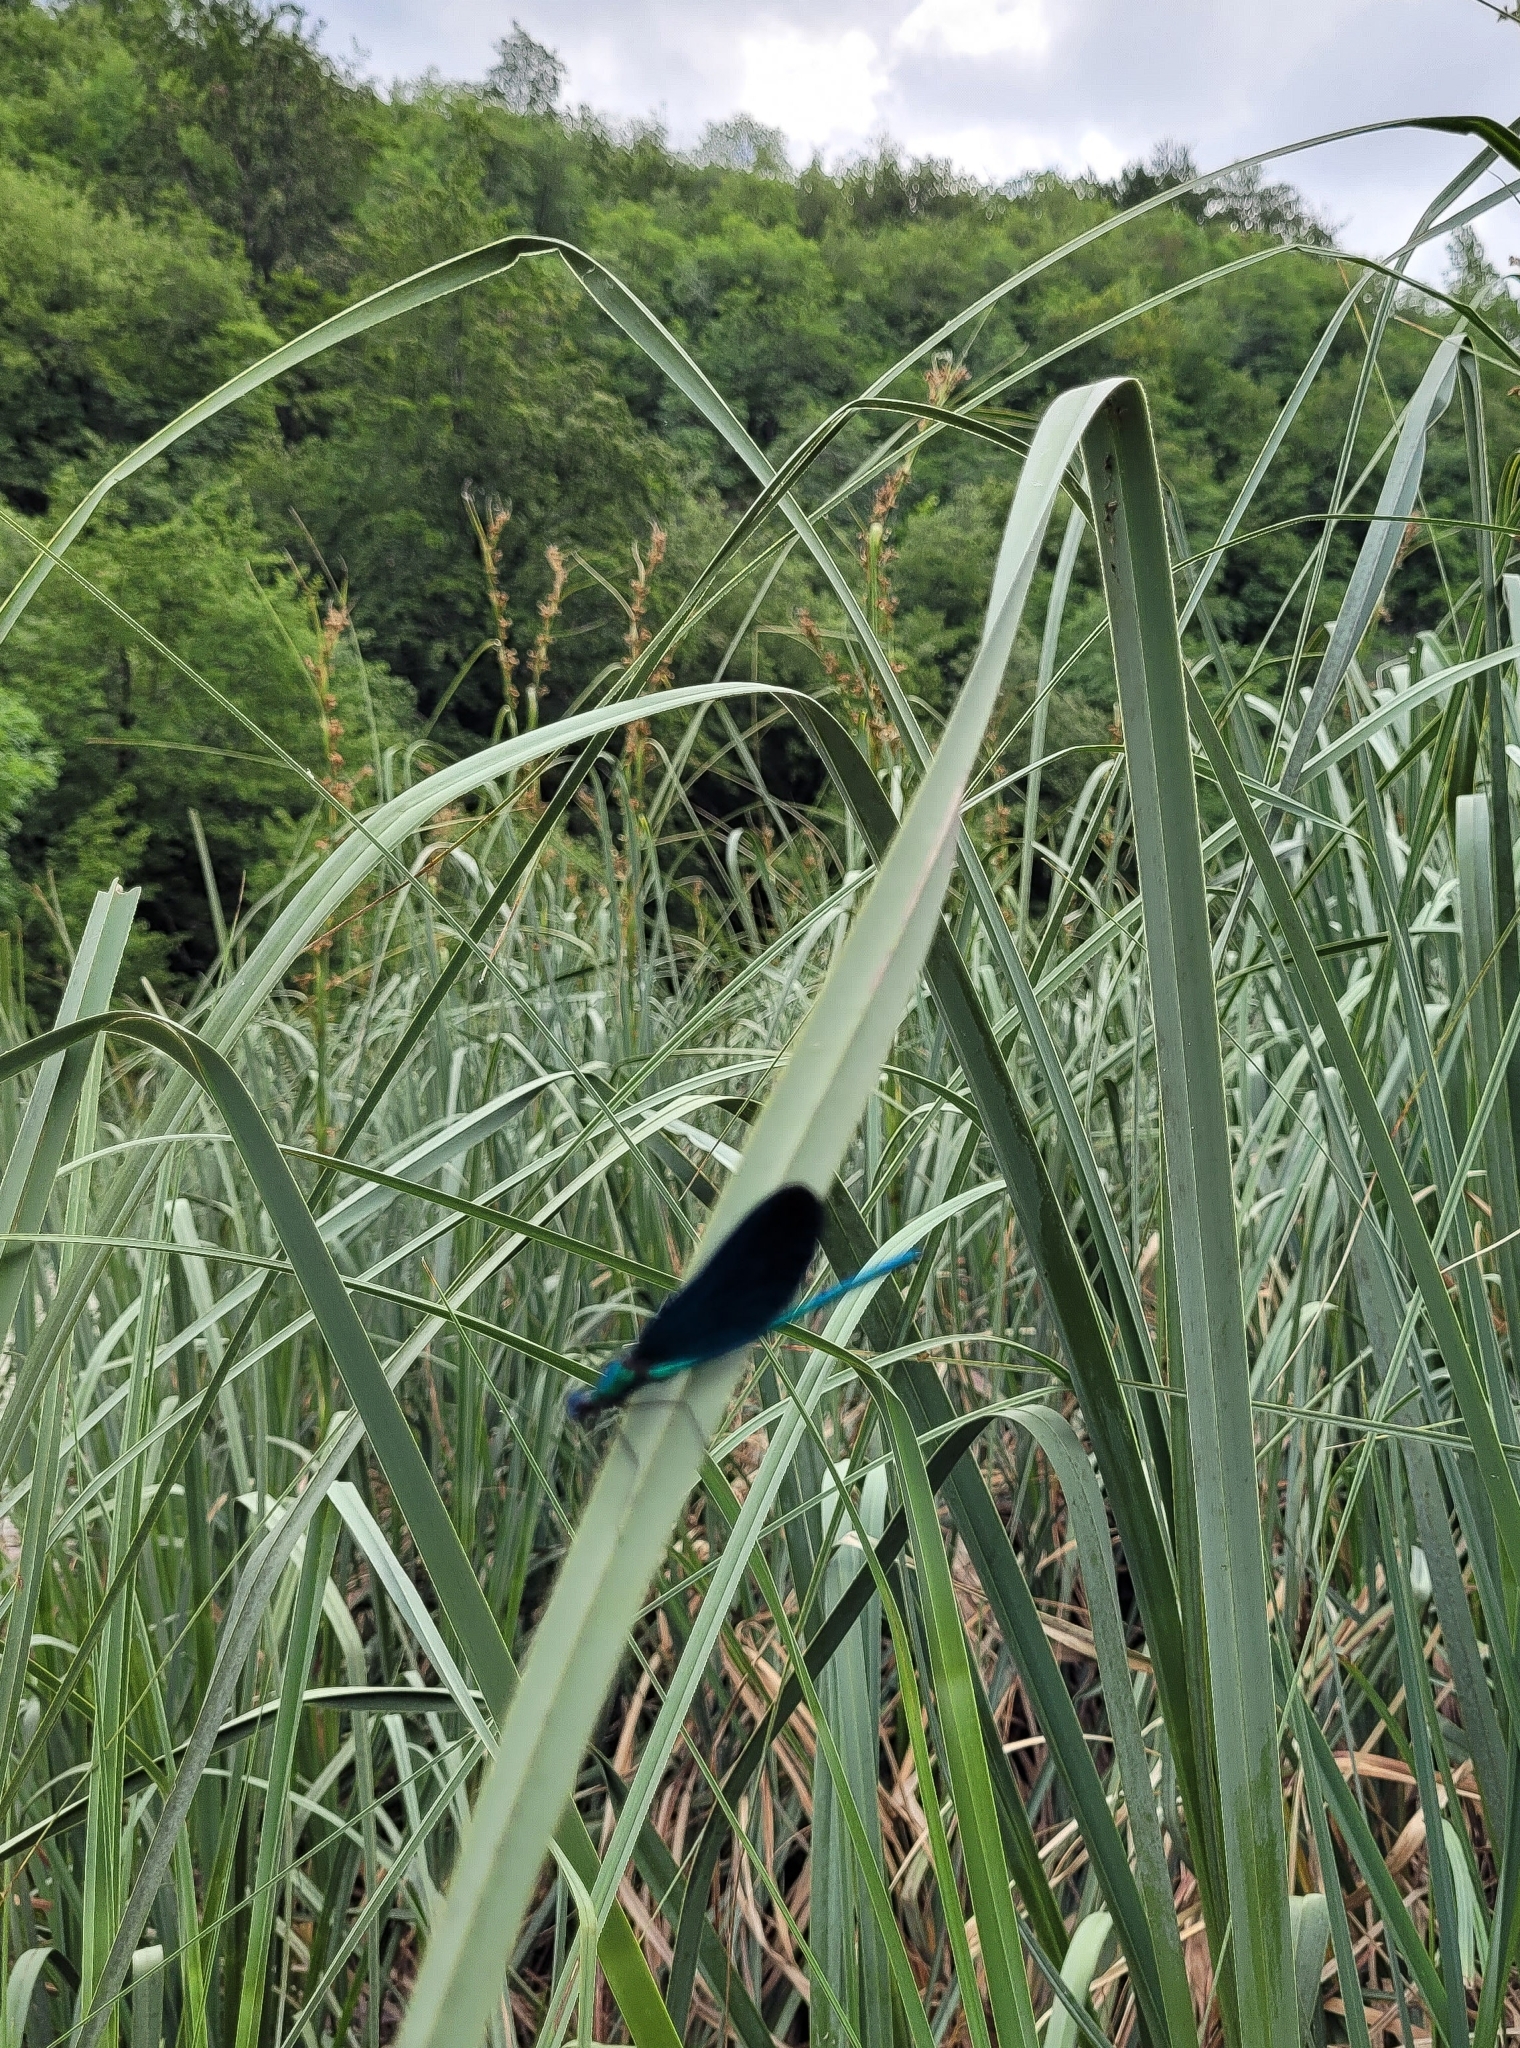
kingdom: Animalia
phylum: Arthropoda
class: Insecta
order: Odonata
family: Calopterygidae
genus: Calopteryx
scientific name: Calopteryx virgo
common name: Beautiful demoiselle
